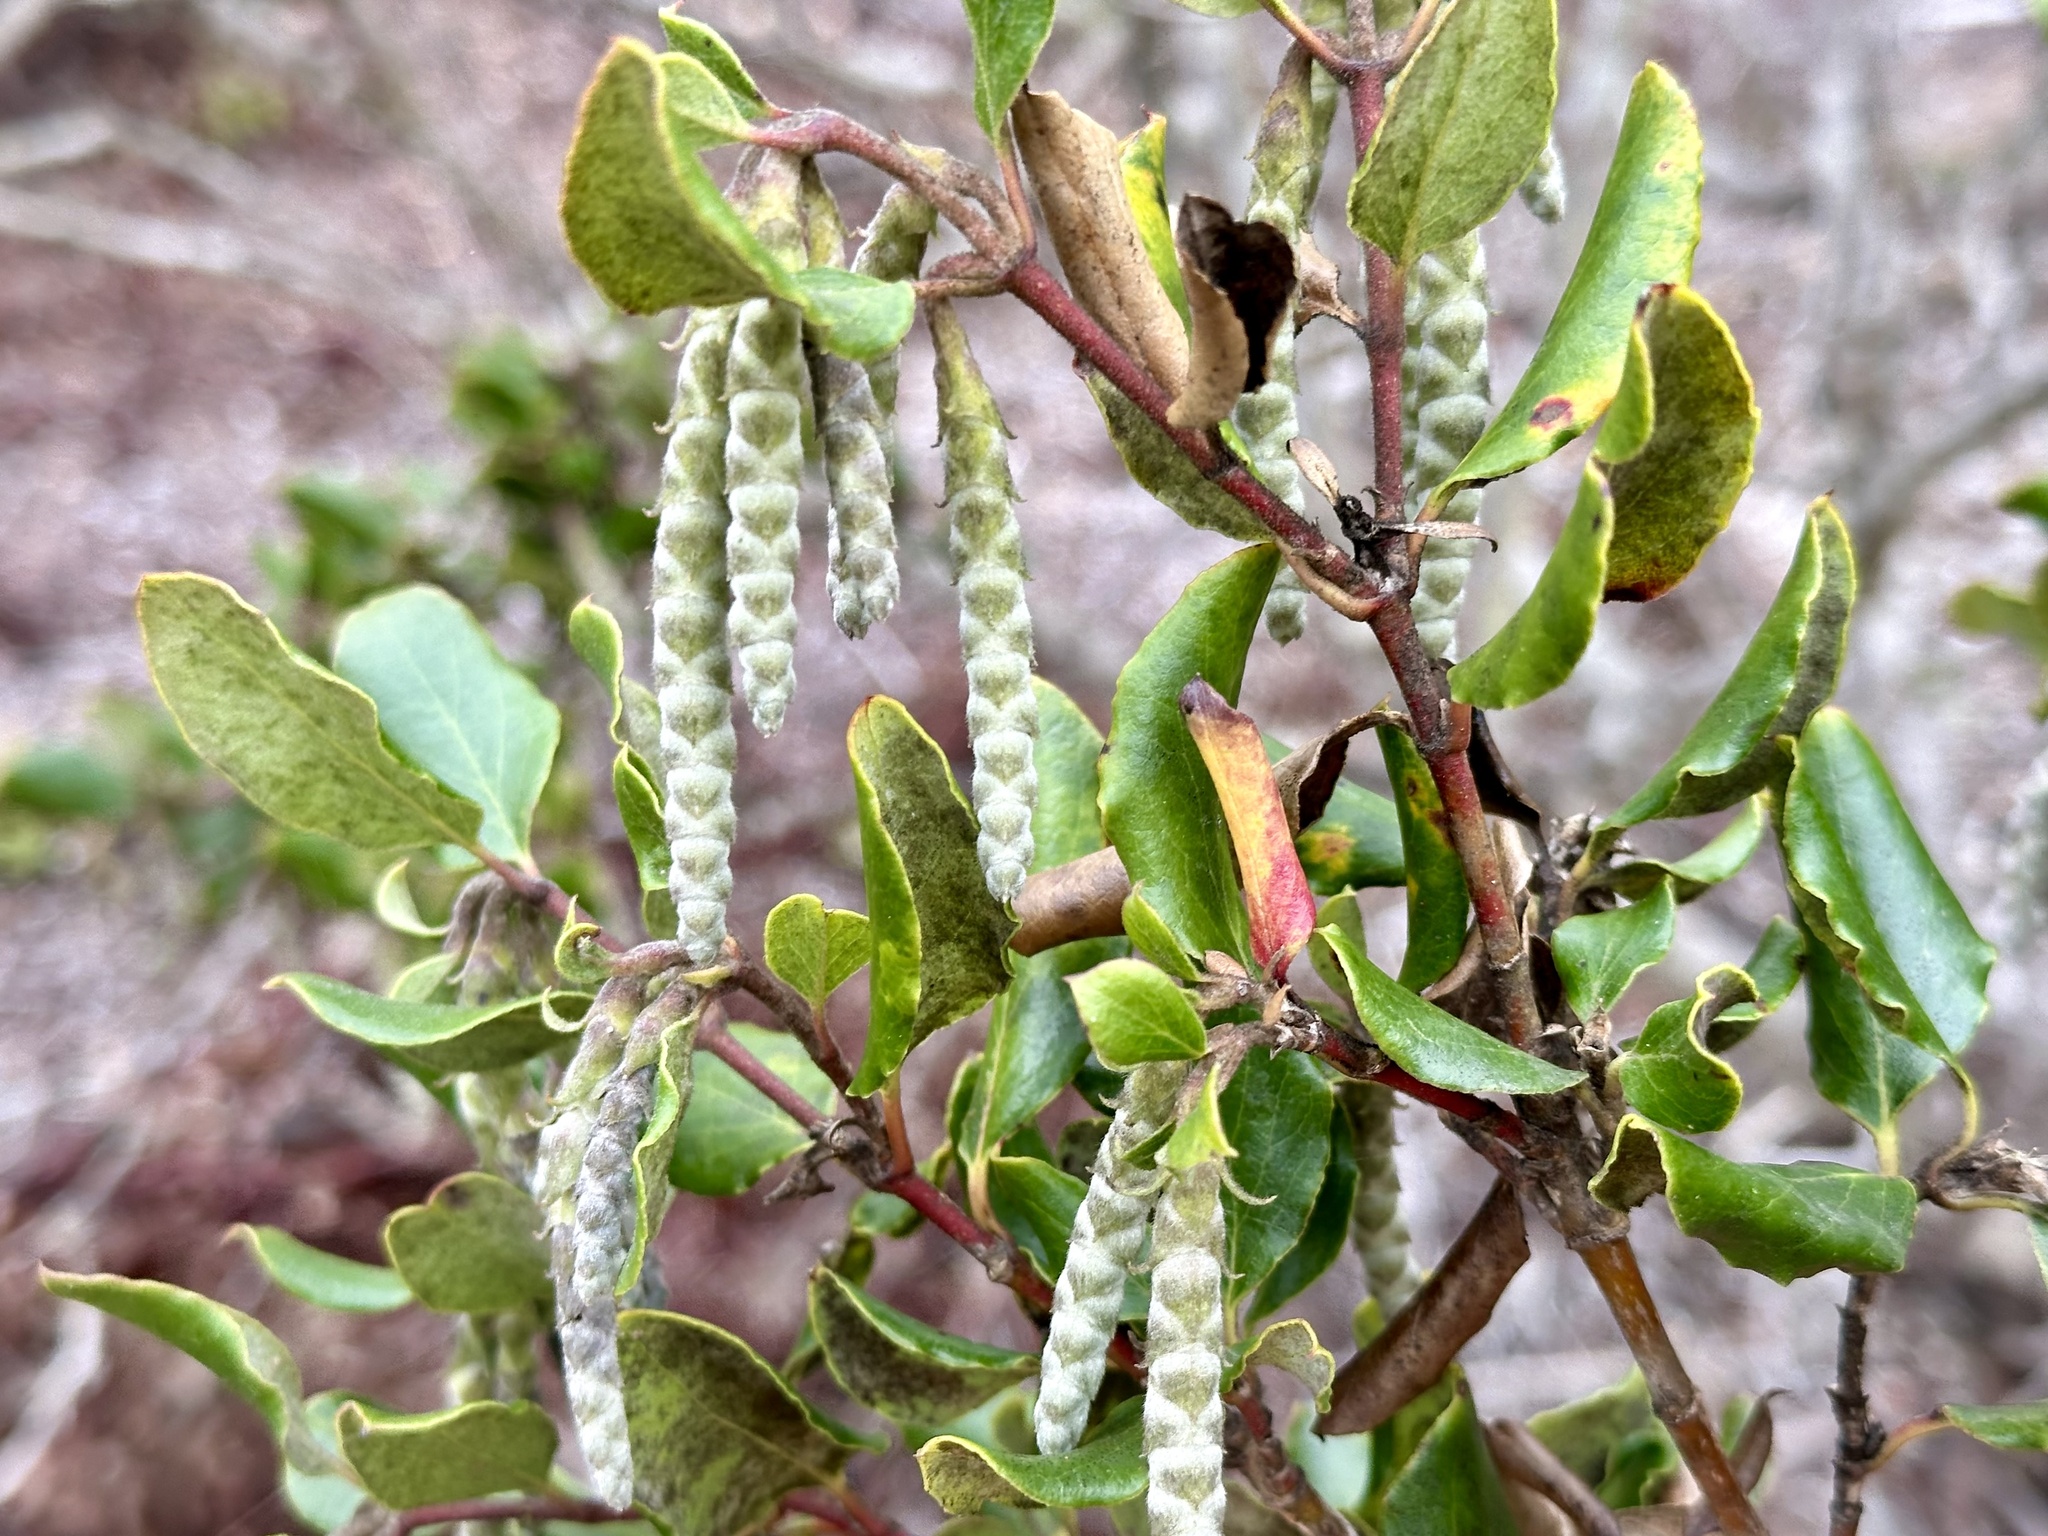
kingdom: Plantae
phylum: Tracheophyta
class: Magnoliopsida
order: Garryales
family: Garryaceae
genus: Garrya
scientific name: Garrya elliptica
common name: Silk-tassel
